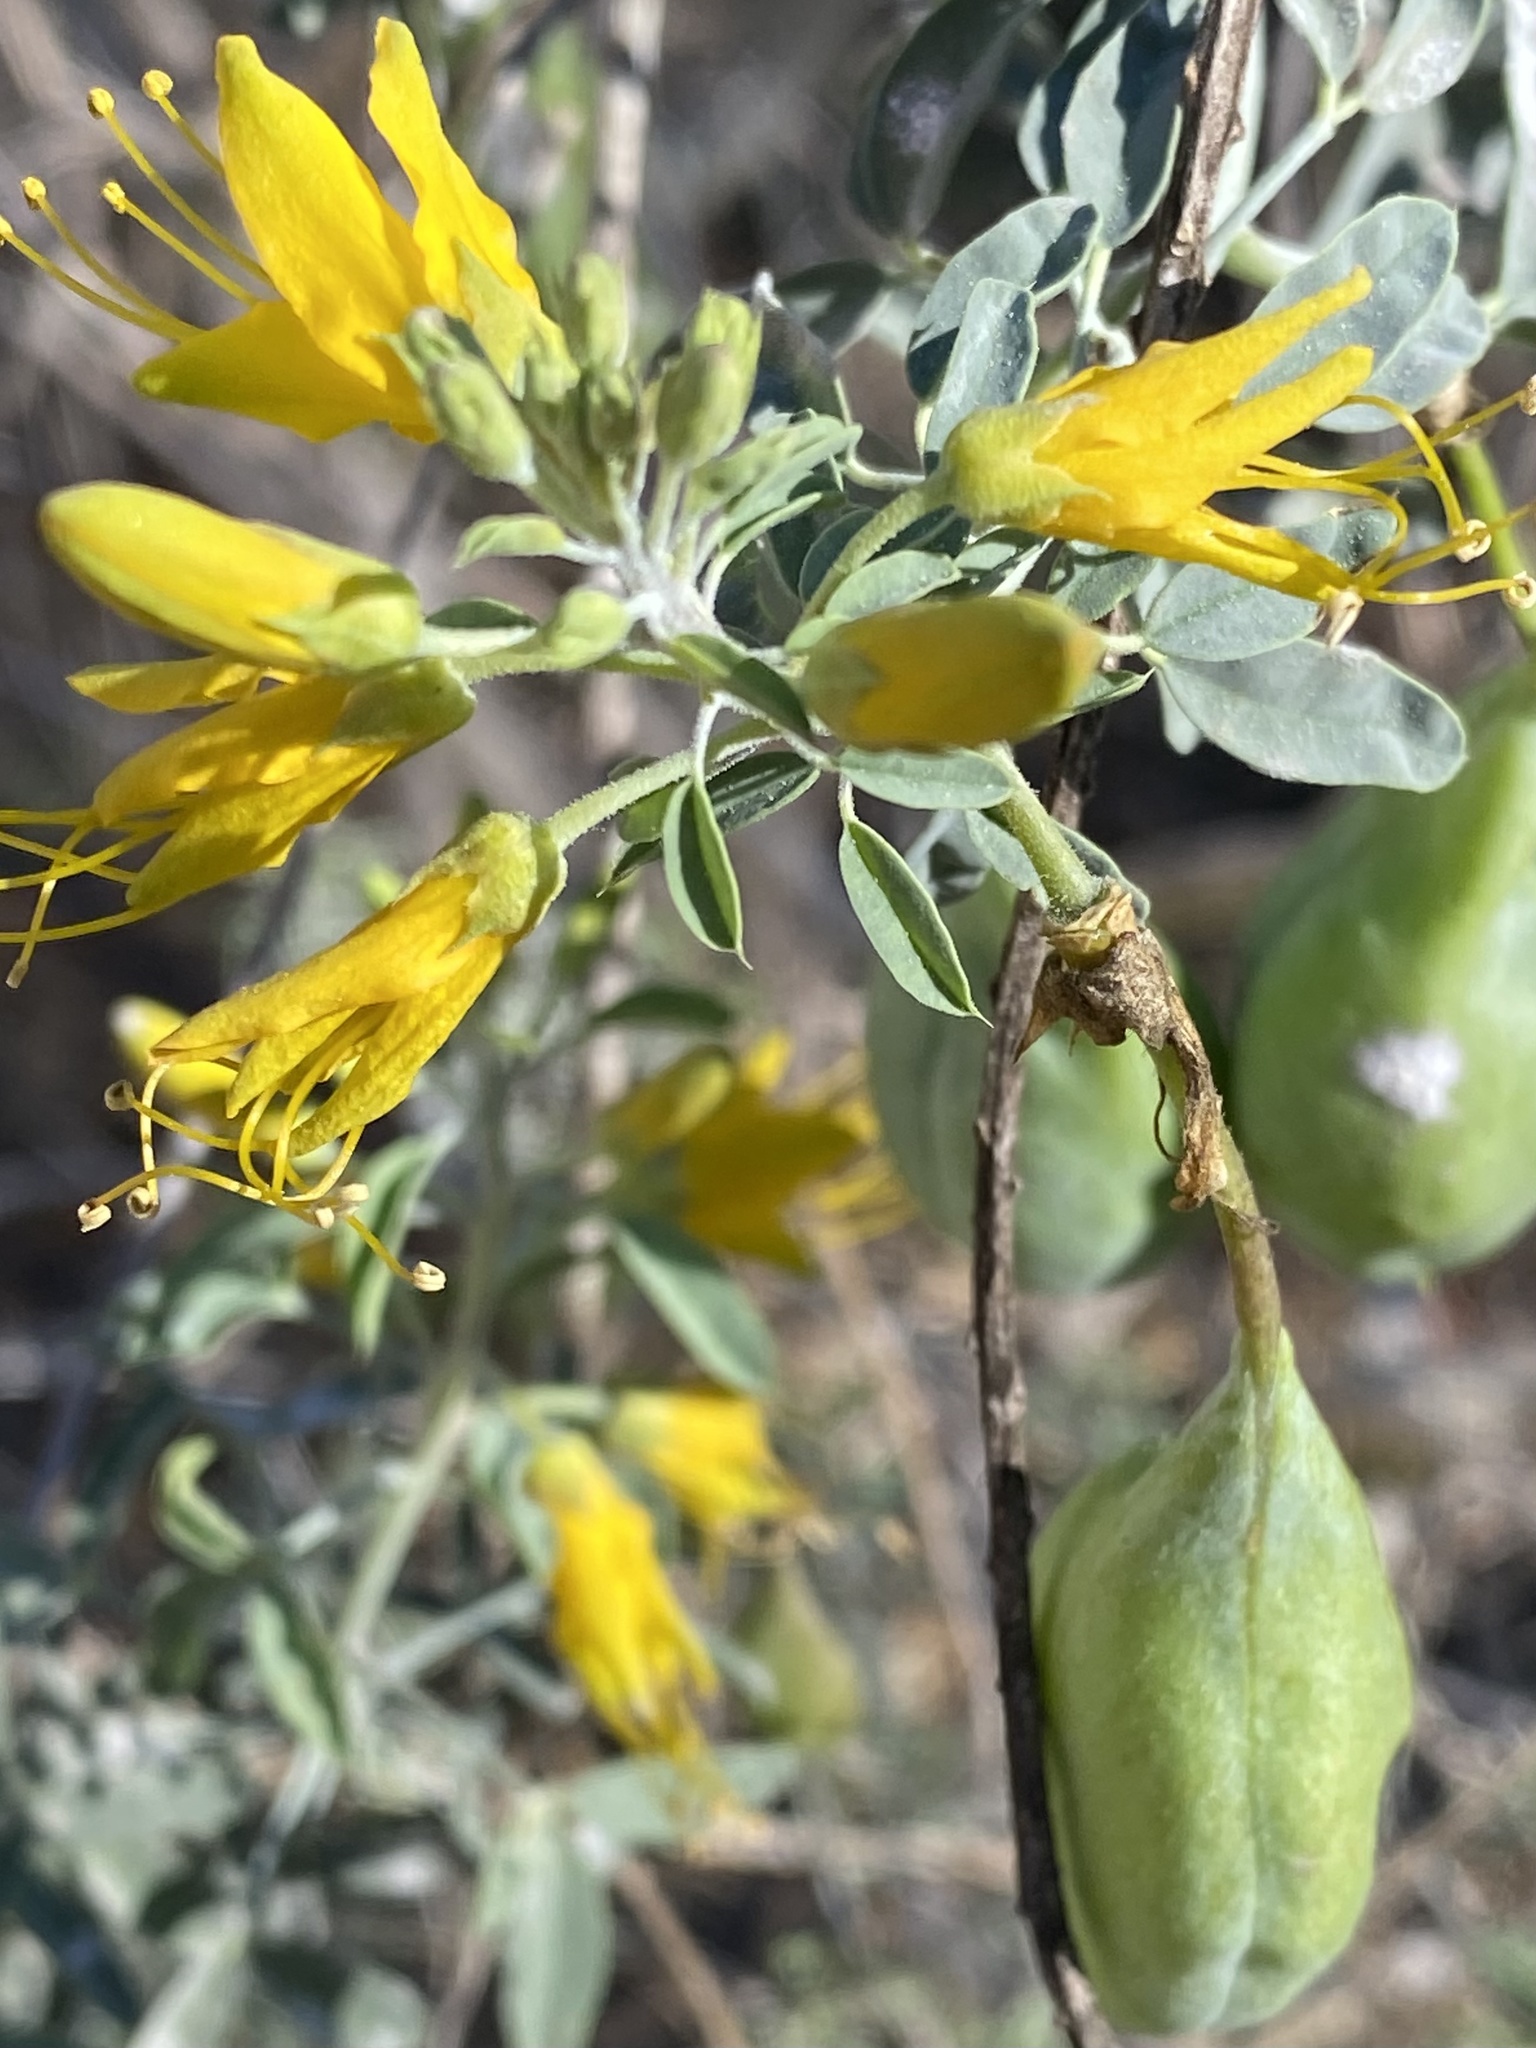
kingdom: Plantae
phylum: Tracheophyta
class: Magnoliopsida
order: Brassicales
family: Cleomaceae
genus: Cleomella
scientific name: Cleomella arborea
